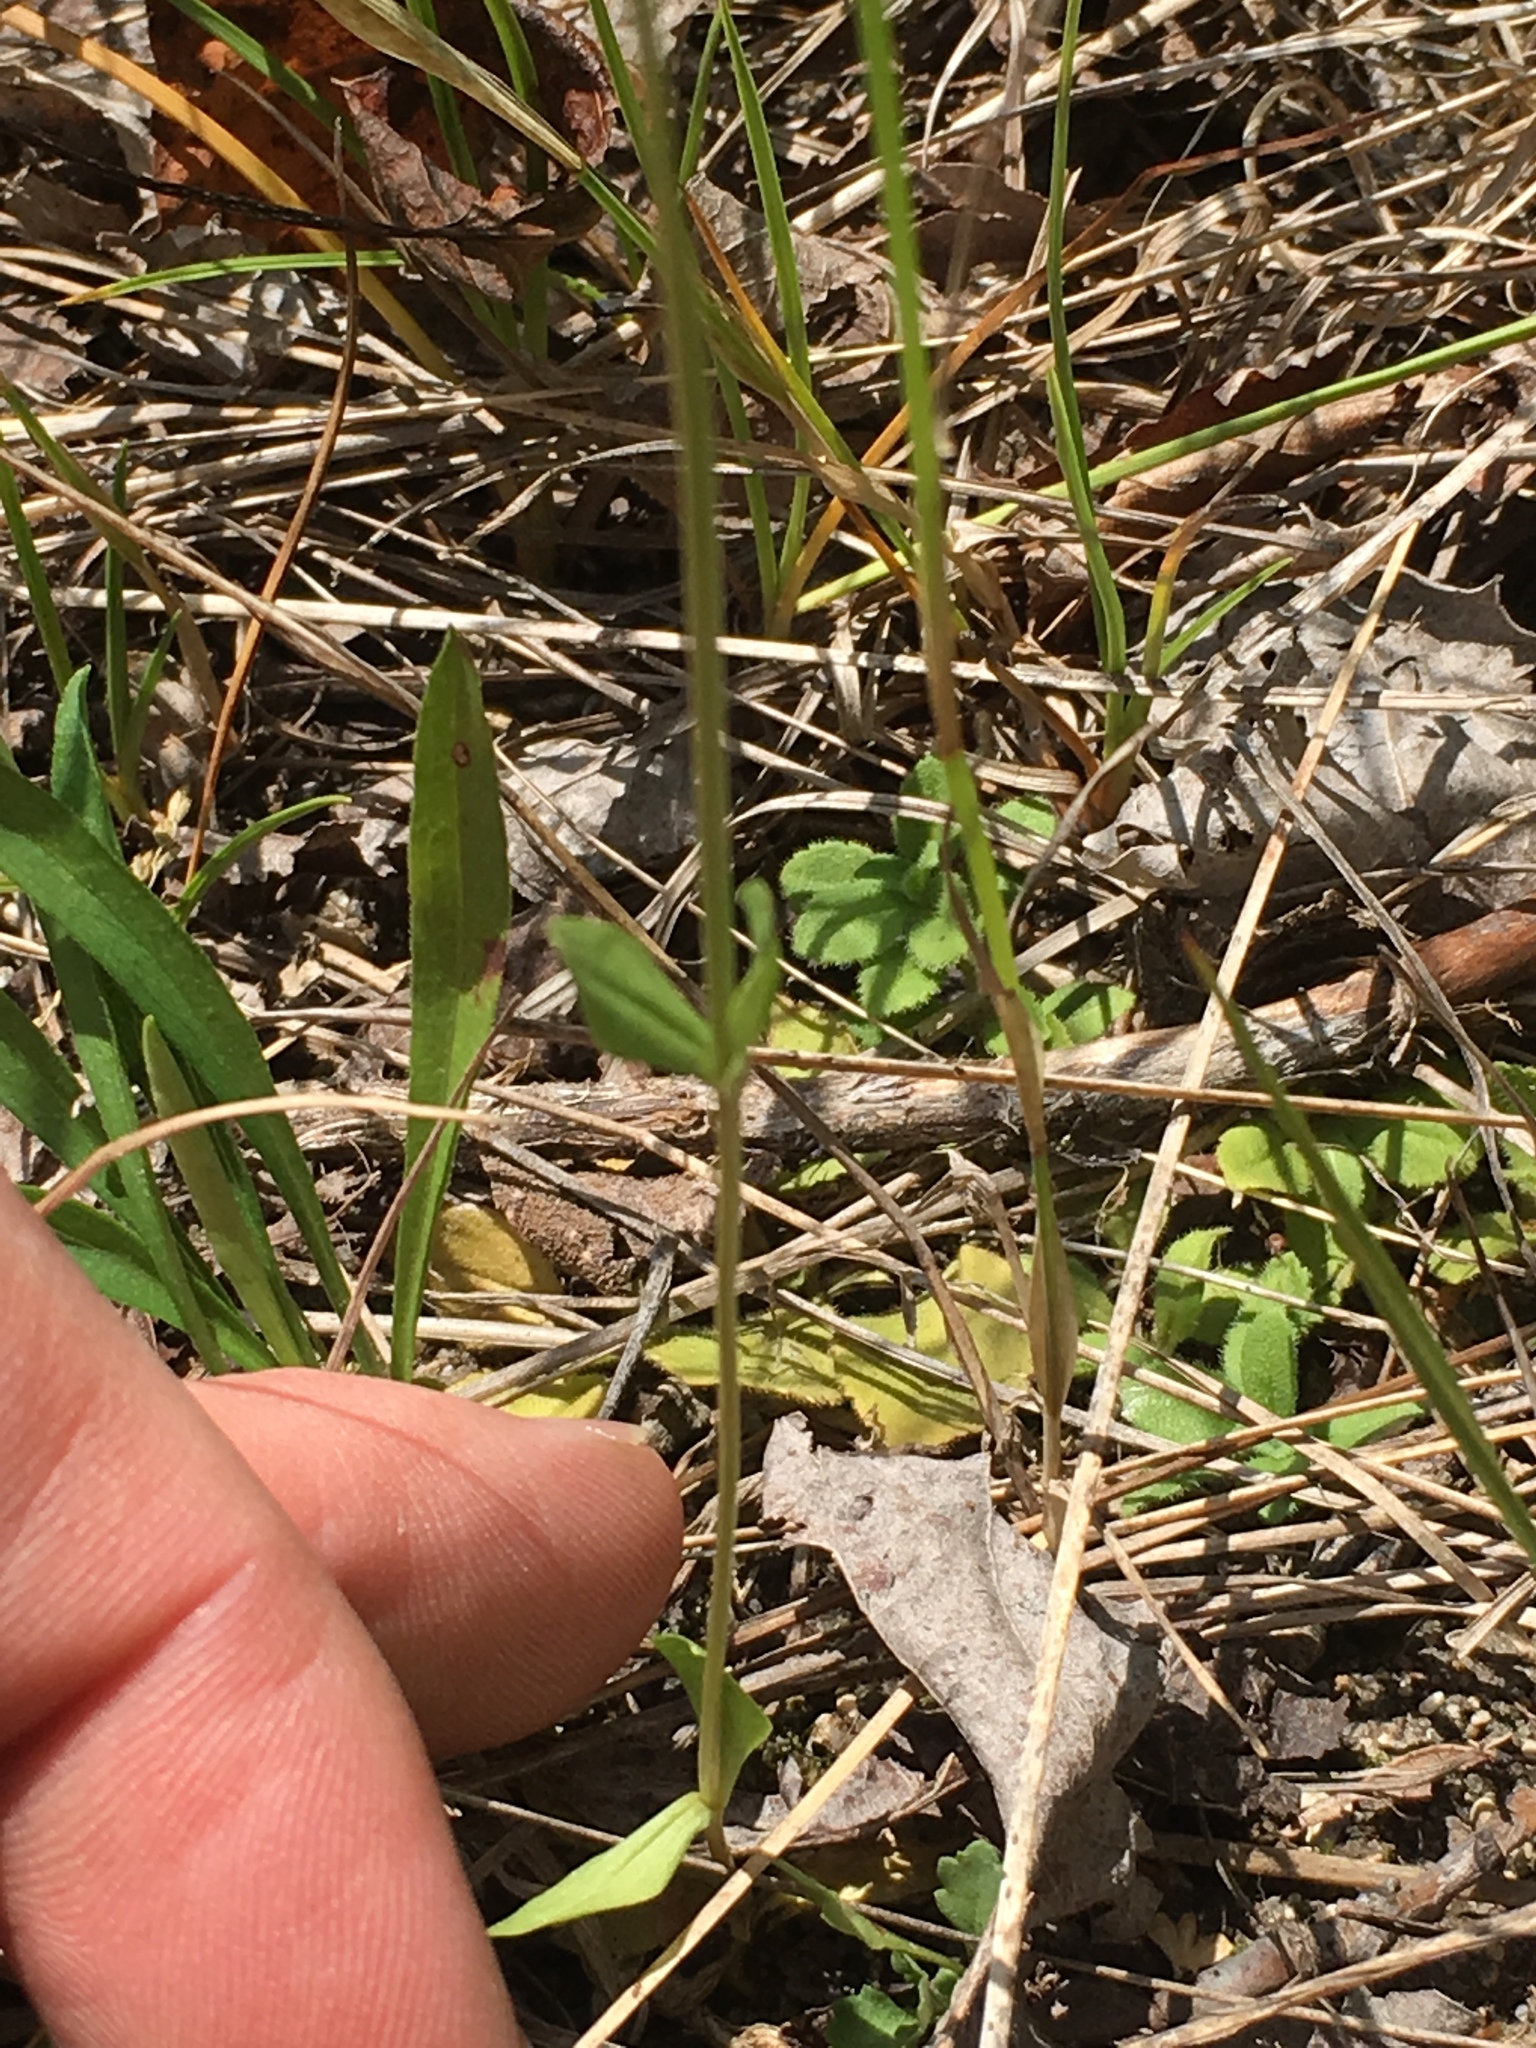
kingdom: Plantae
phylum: Tracheophyta
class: Magnoliopsida
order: Gentianales
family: Gentianaceae
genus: Centaurium
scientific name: Centaurium erythraea
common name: Common centaury
